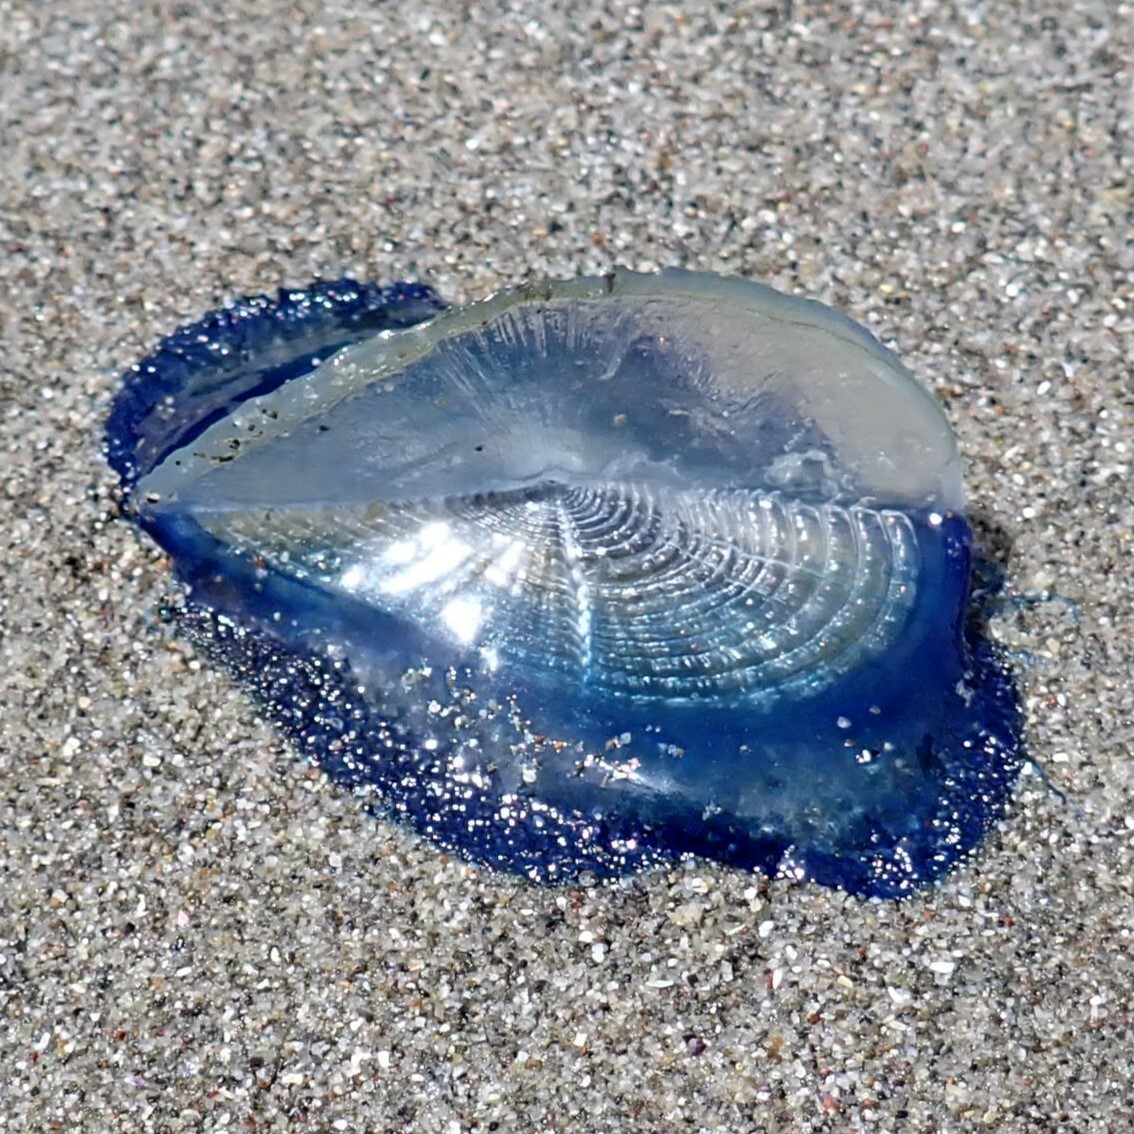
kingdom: Animalia
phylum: Cnidaria
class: Hydrozoa
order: Anthoathecata
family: Porpitidae
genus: Velella
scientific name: Velella velella
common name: By-the-wind-sailor
